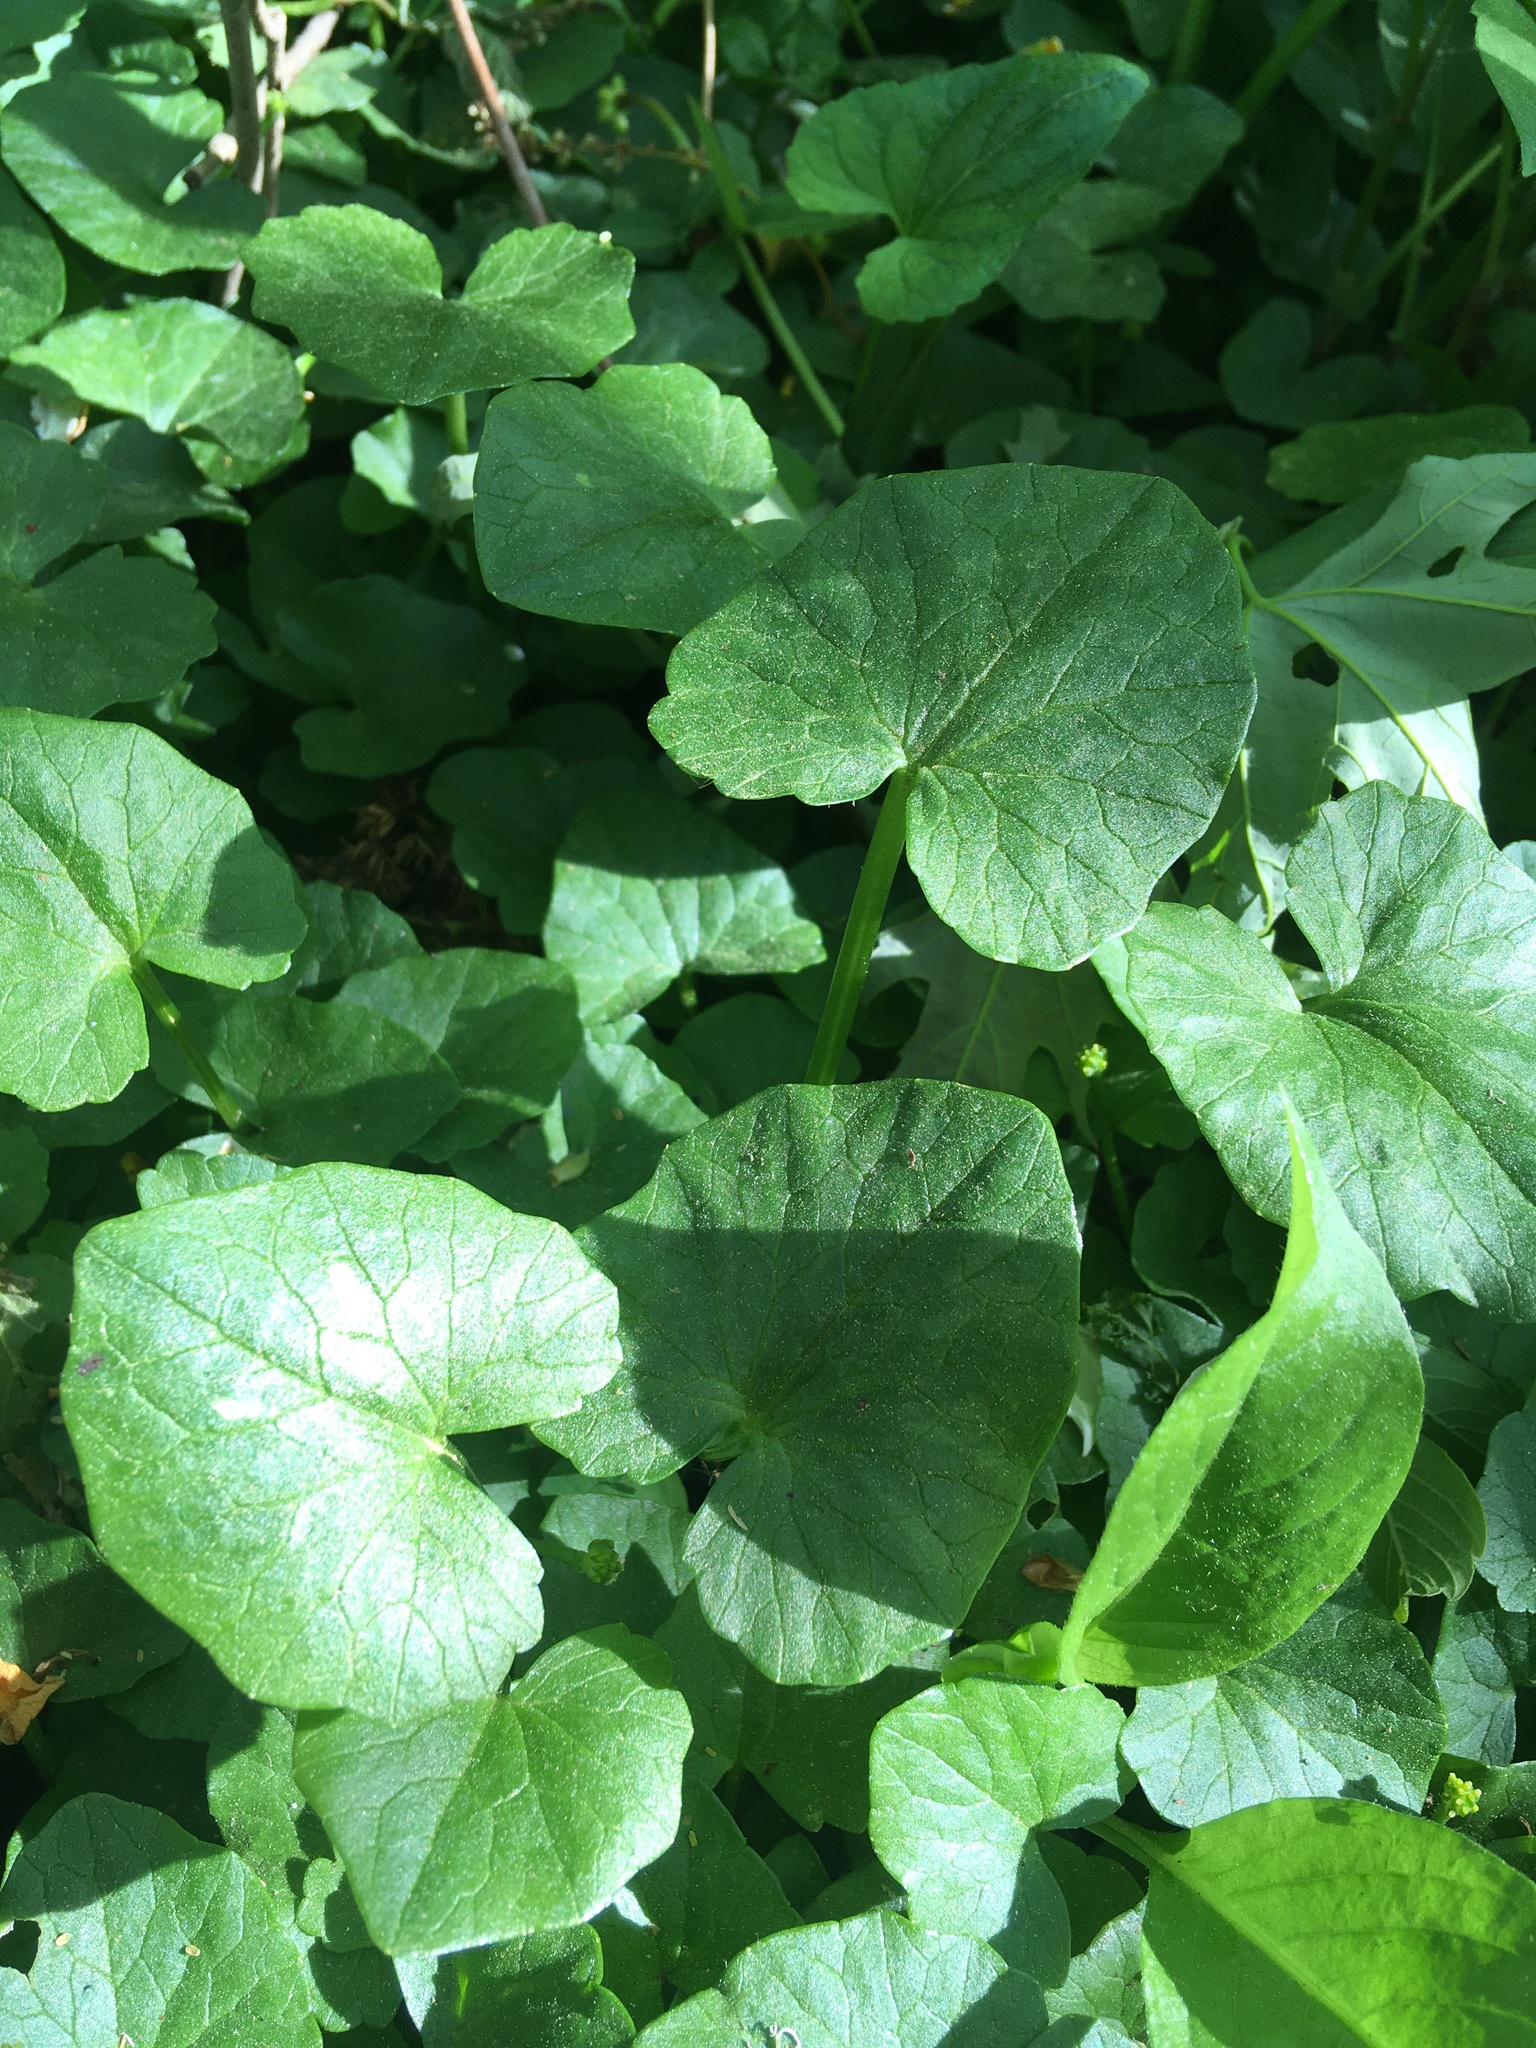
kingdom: Plantae
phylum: Tracheophyta
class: Magnoliopsida
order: Ranunculales
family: Ranunculaceae
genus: Ficaria
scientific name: Ficaria verna
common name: Lesser celandine
